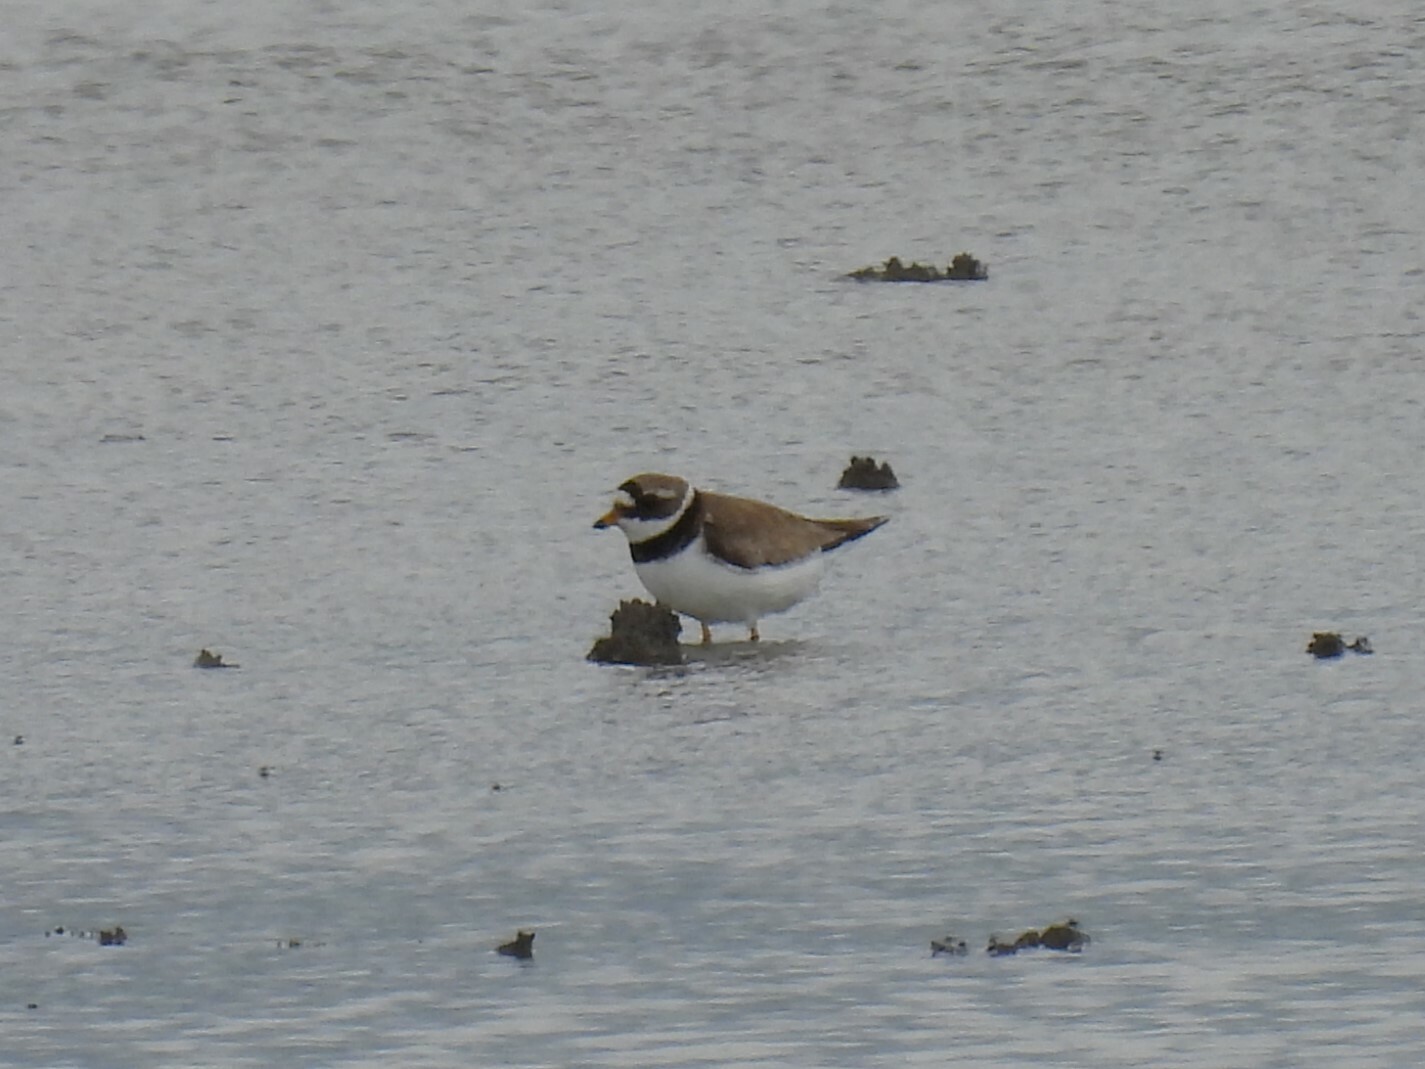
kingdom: Animalia
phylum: Chordata
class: Aves
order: Charadriiformes
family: Charadriidae
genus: Charadrius
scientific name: Charadrius hiaticula
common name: Common ringed plover
